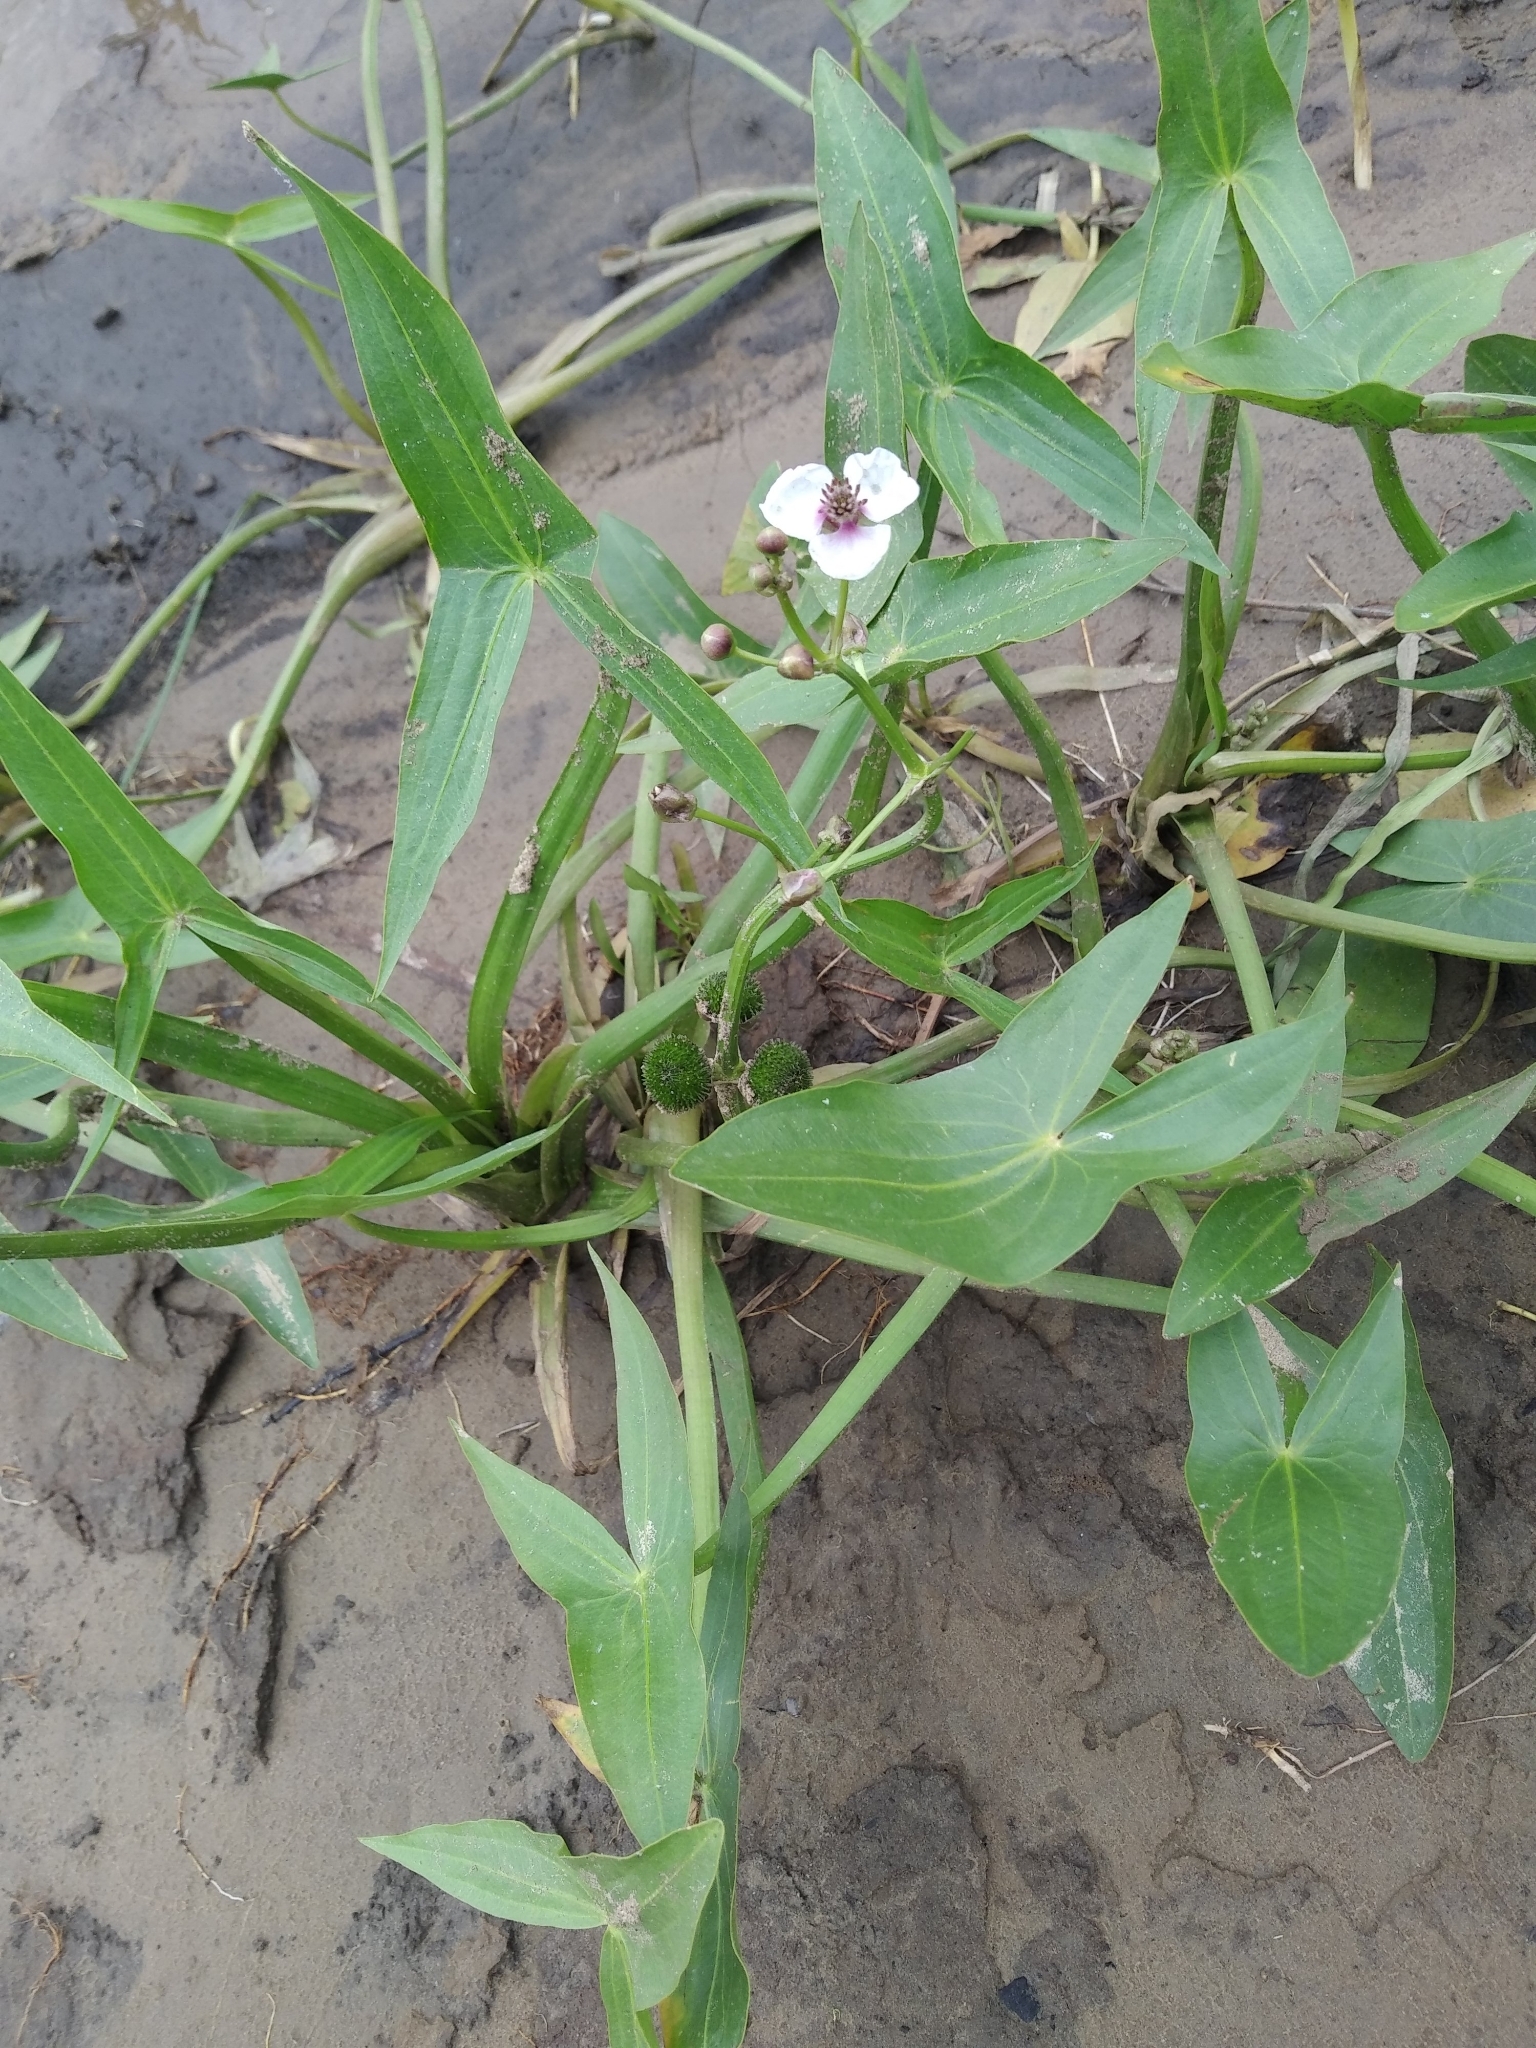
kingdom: Plantae
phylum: Tracheophyta
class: Liliopsida
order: Alismatales
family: Alismataceae
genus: Sagittaria
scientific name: Sagittaria sagittifolia
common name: Arrowhead
